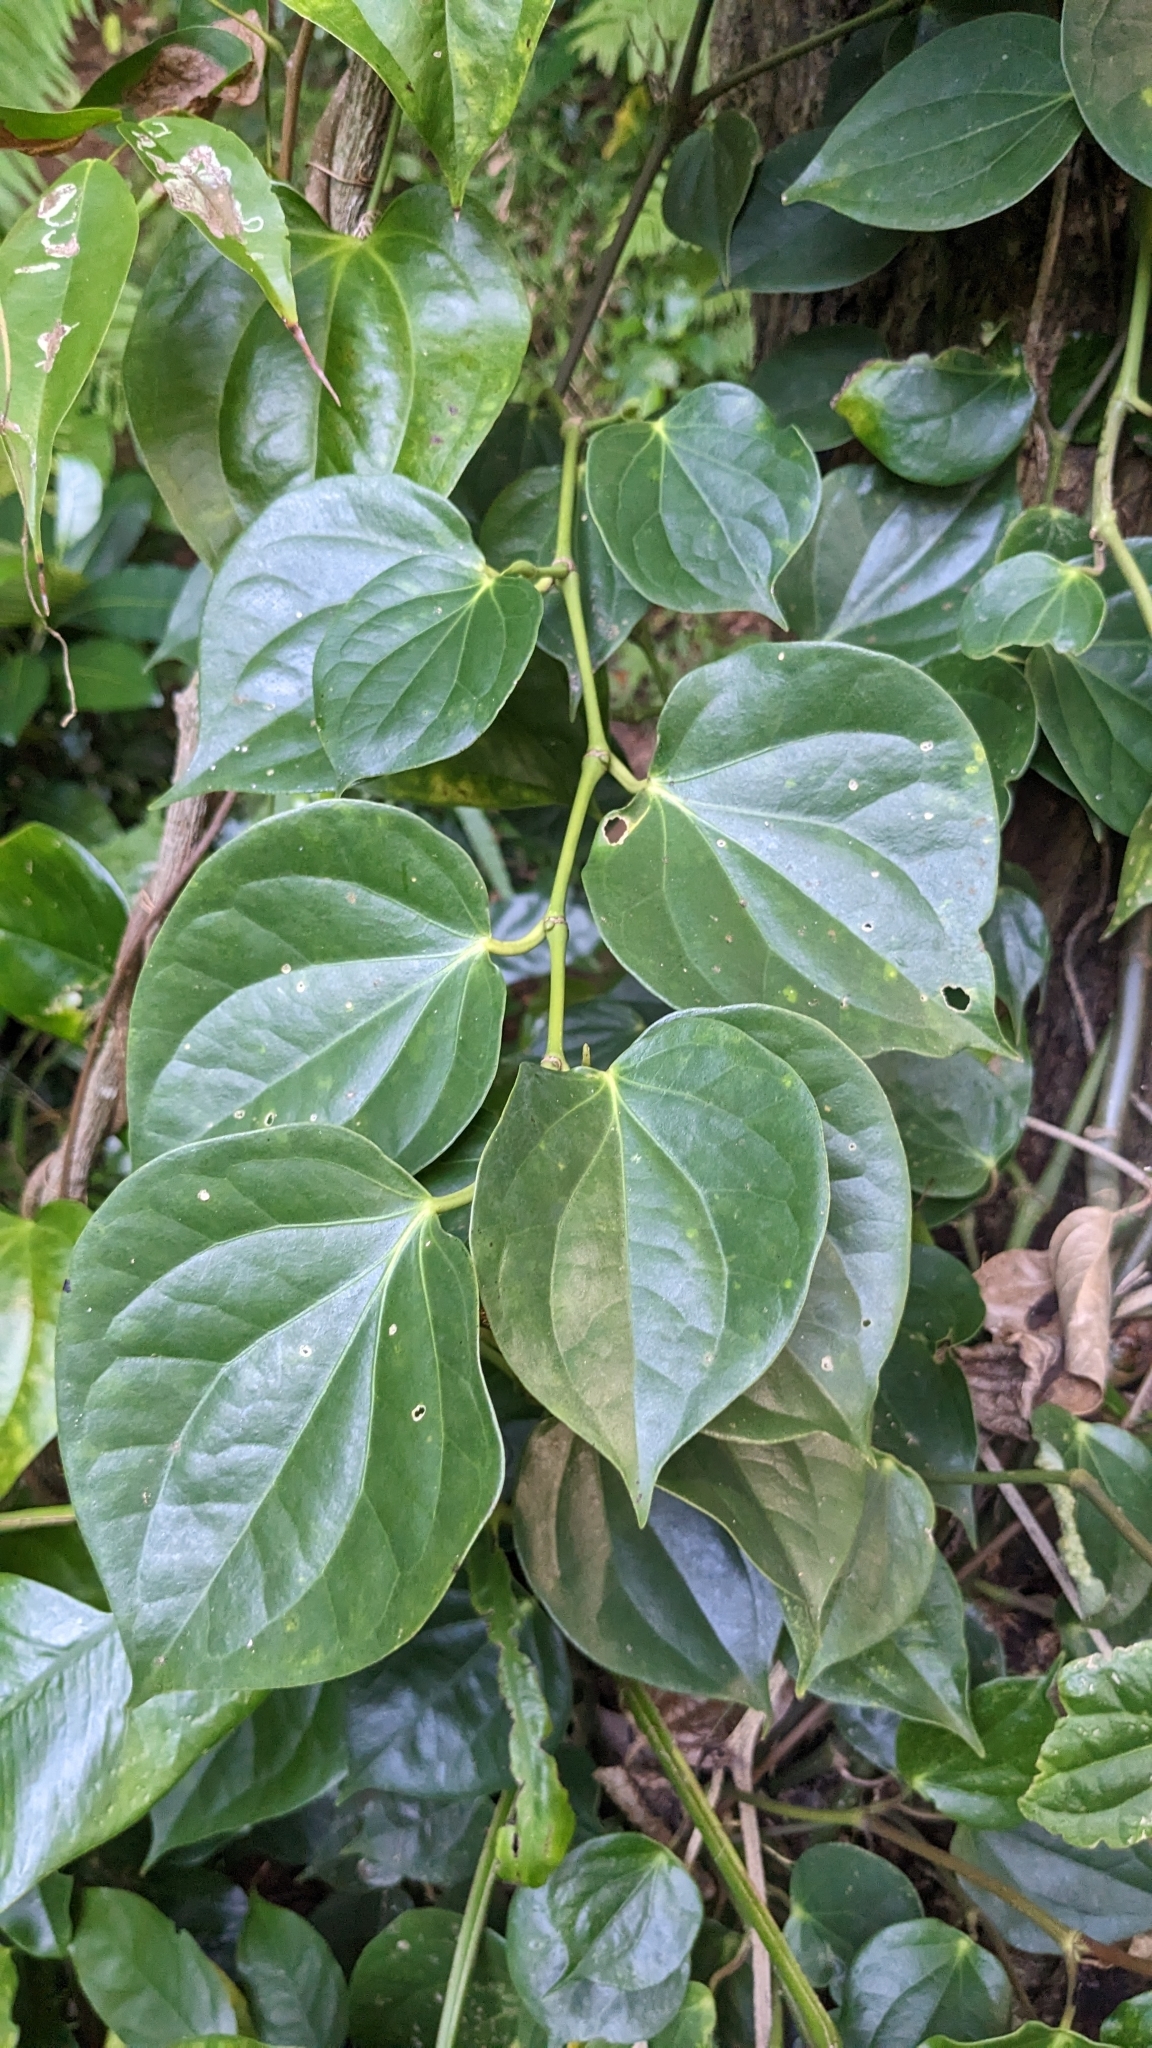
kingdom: Plantae
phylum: Tracheophyta
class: Magnoliopsida
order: Piperales
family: Piperaceae
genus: Piper
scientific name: Piper lanyuense
